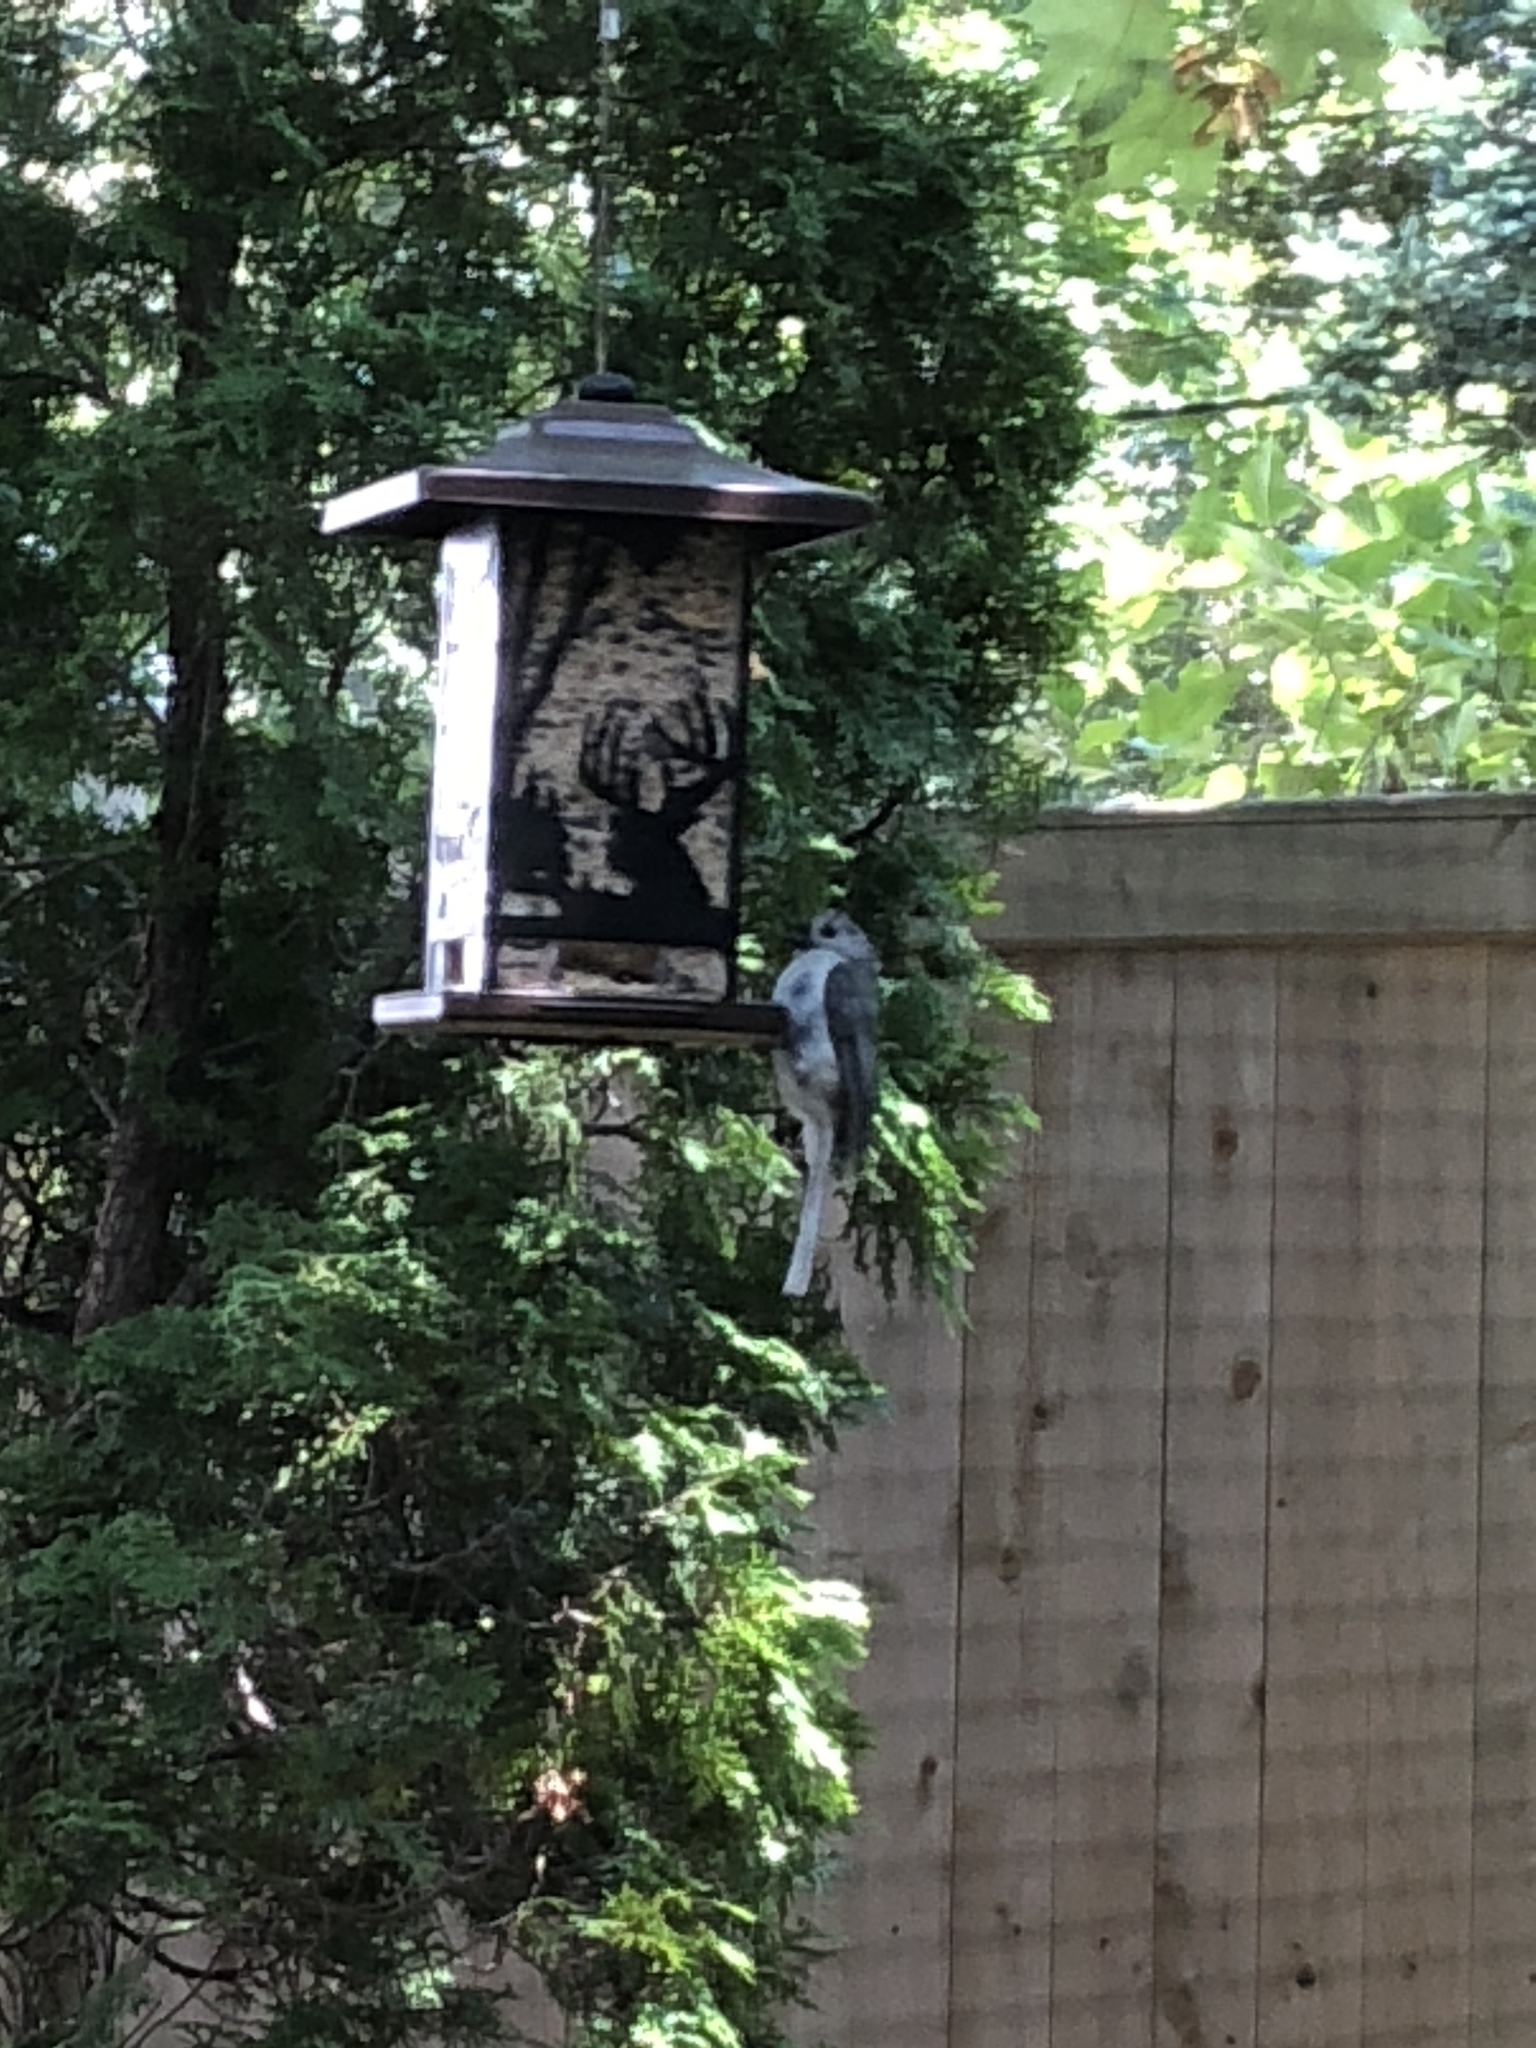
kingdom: Animalia
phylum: Chordata
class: Aves
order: Passeriformes
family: Paridae
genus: Baeolophus
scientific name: Baeolophus bicolor
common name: Tufted titmouse
